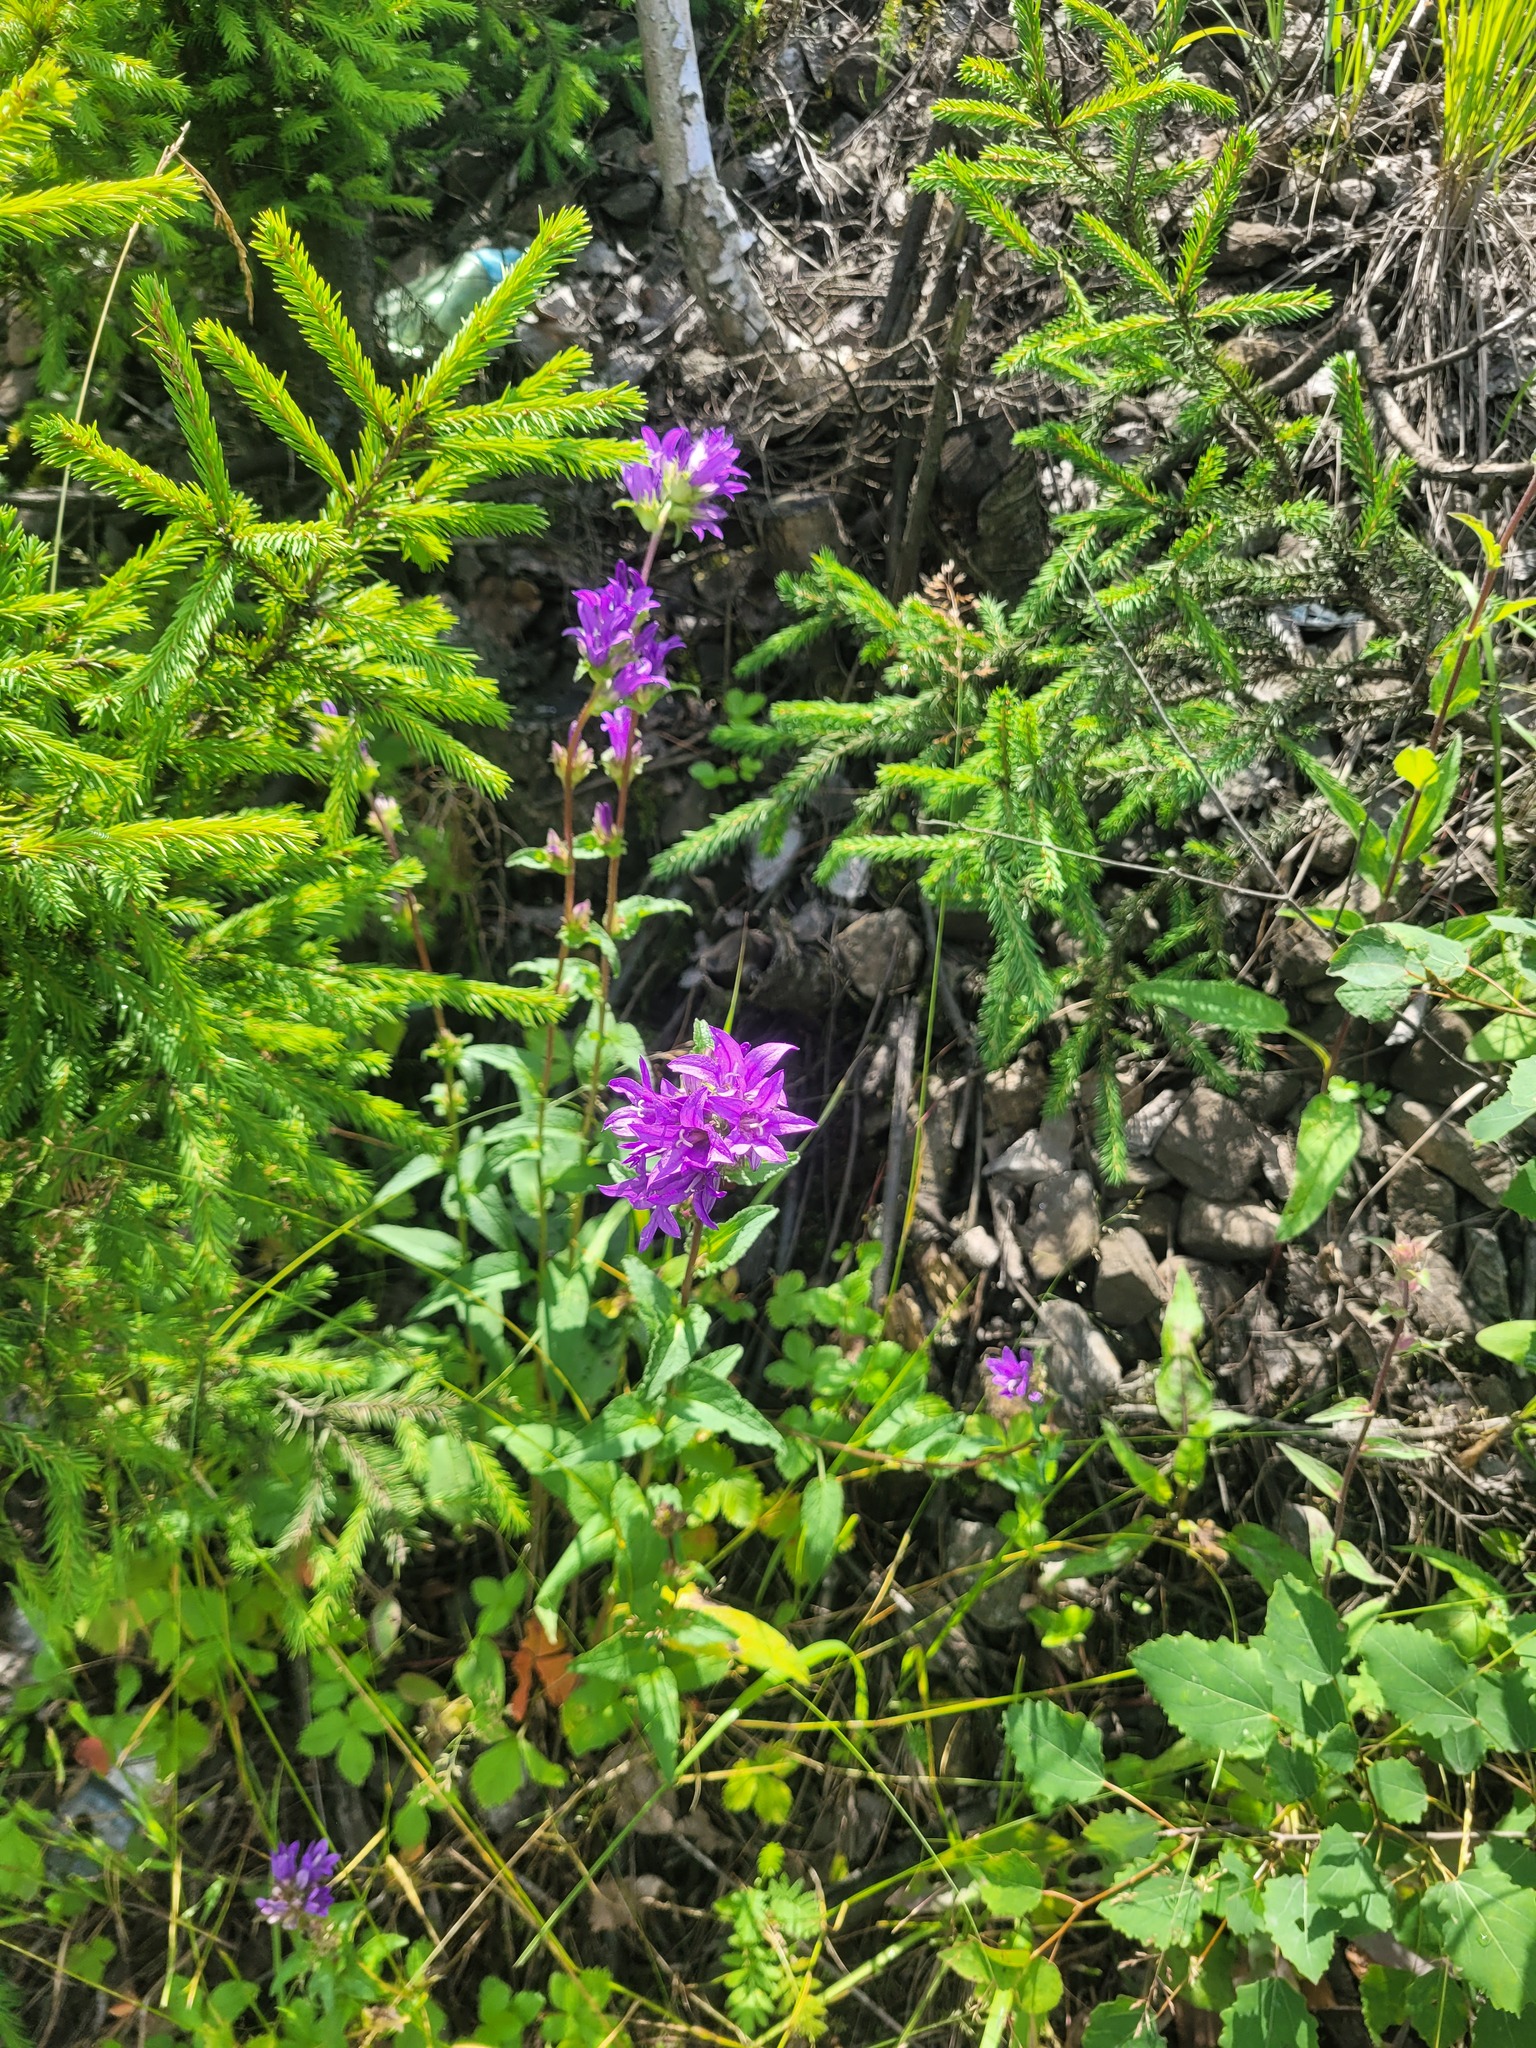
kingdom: Plantae
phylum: Tracheophyta
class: Magnoliopsida
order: Asterales
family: Campanulaceae
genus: Campanula
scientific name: Campanula glomerata
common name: Clustered bellflower
